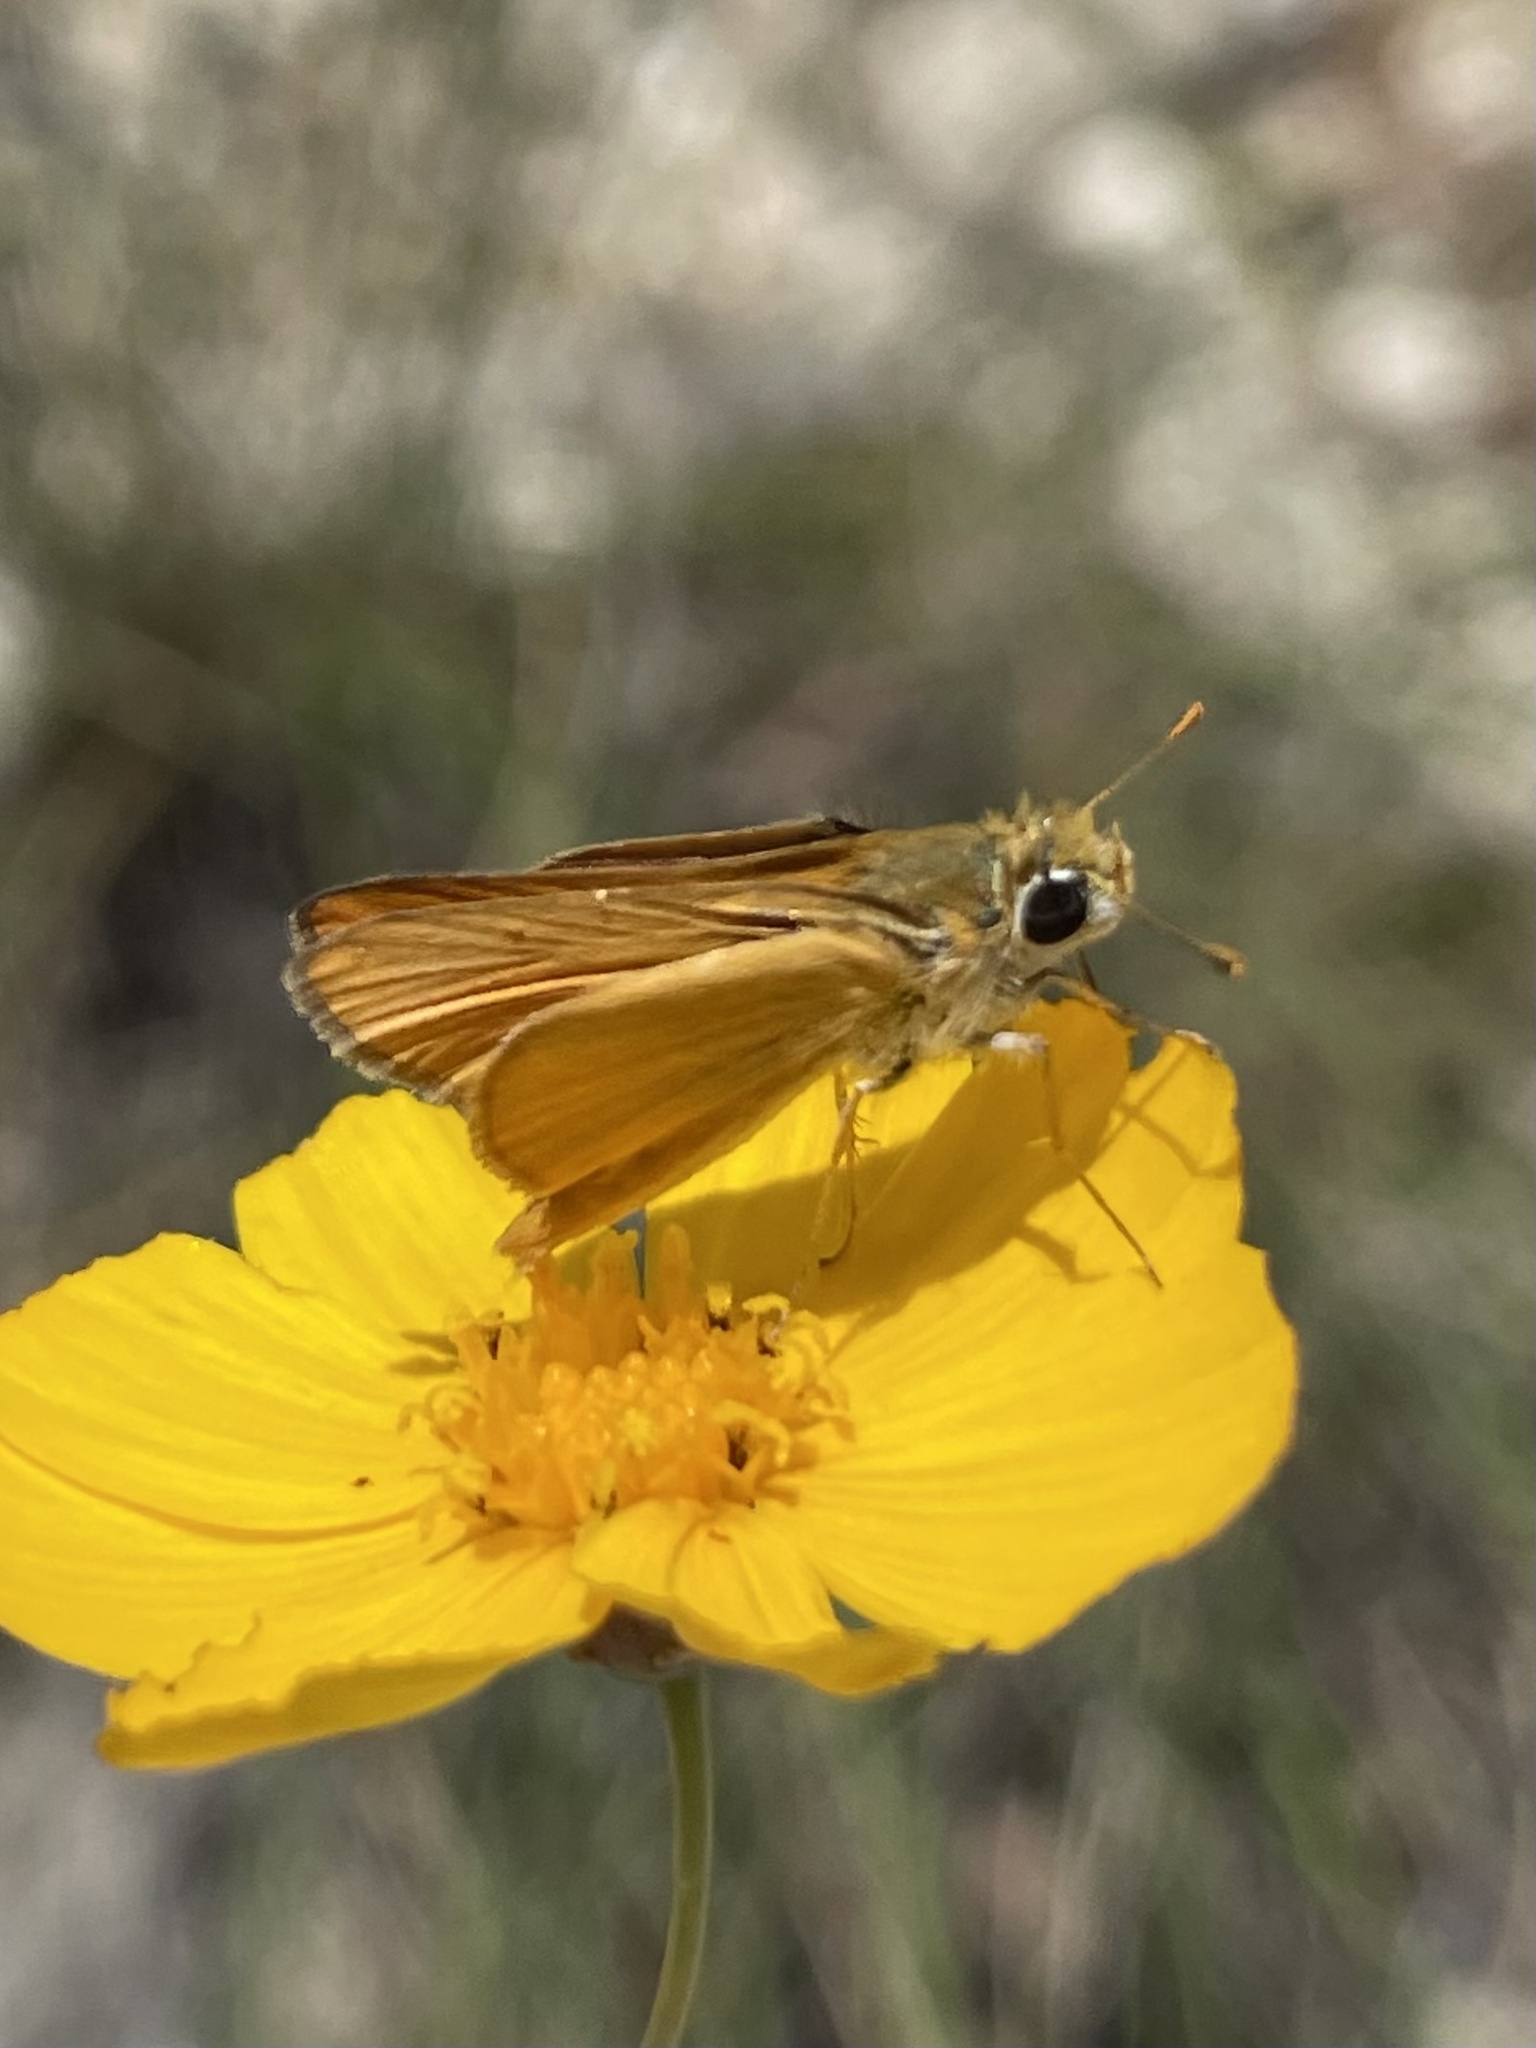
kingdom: Animalia
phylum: Arthropoda
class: Insecta
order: Lepidoptera
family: Hesperiidae
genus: Copaeodes
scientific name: Copaeodes aurantiaca
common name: Orange skipperling
